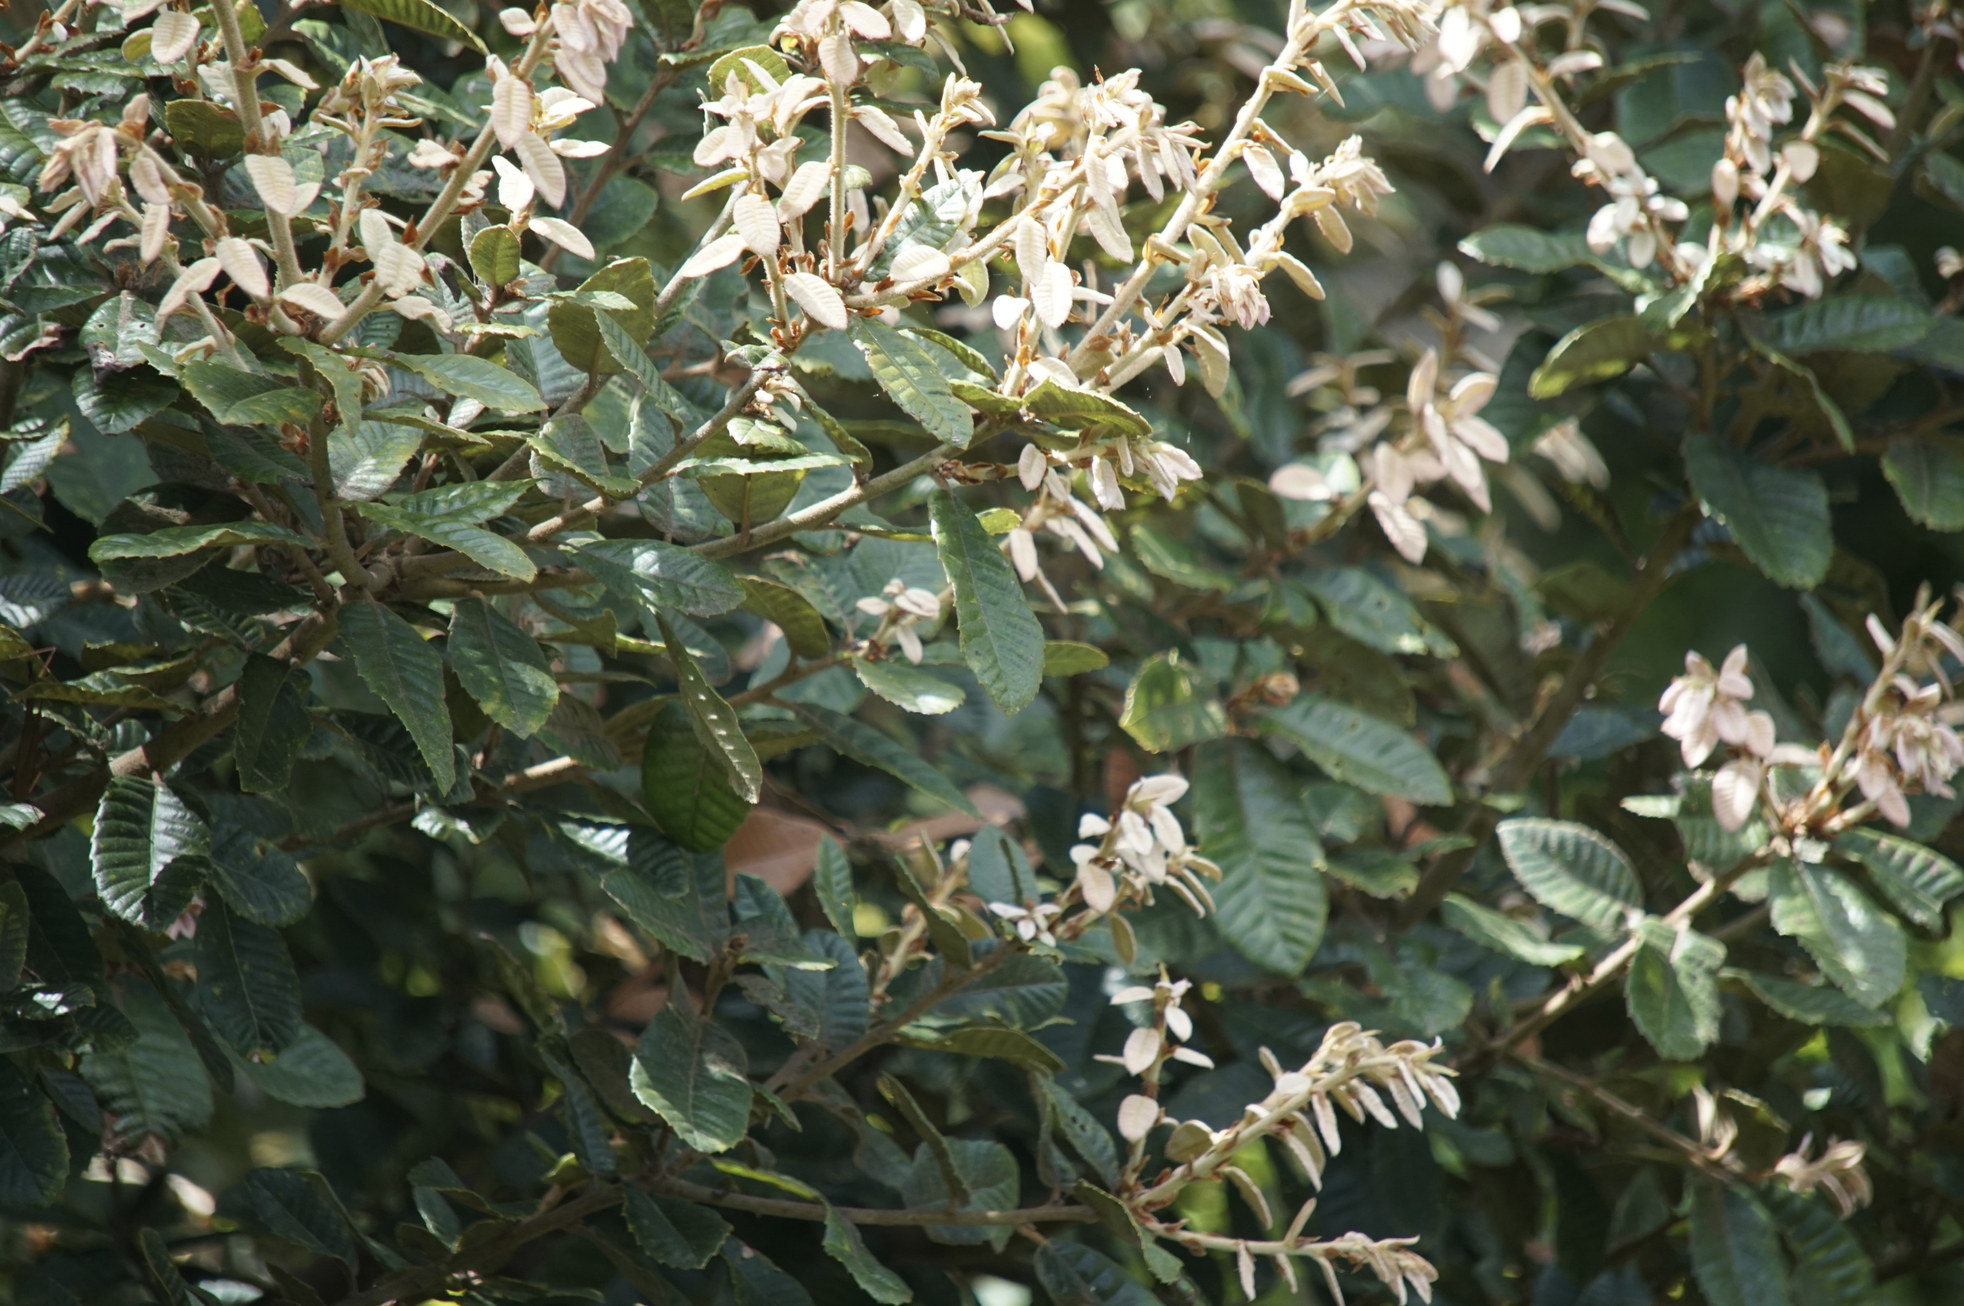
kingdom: Plantae
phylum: Tracheophyta
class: Magnoliopsida
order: Fagales
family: Fagaceae
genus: Notholithocarpus
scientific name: Notholithocarpus densiflorus
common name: Tan bark oak
